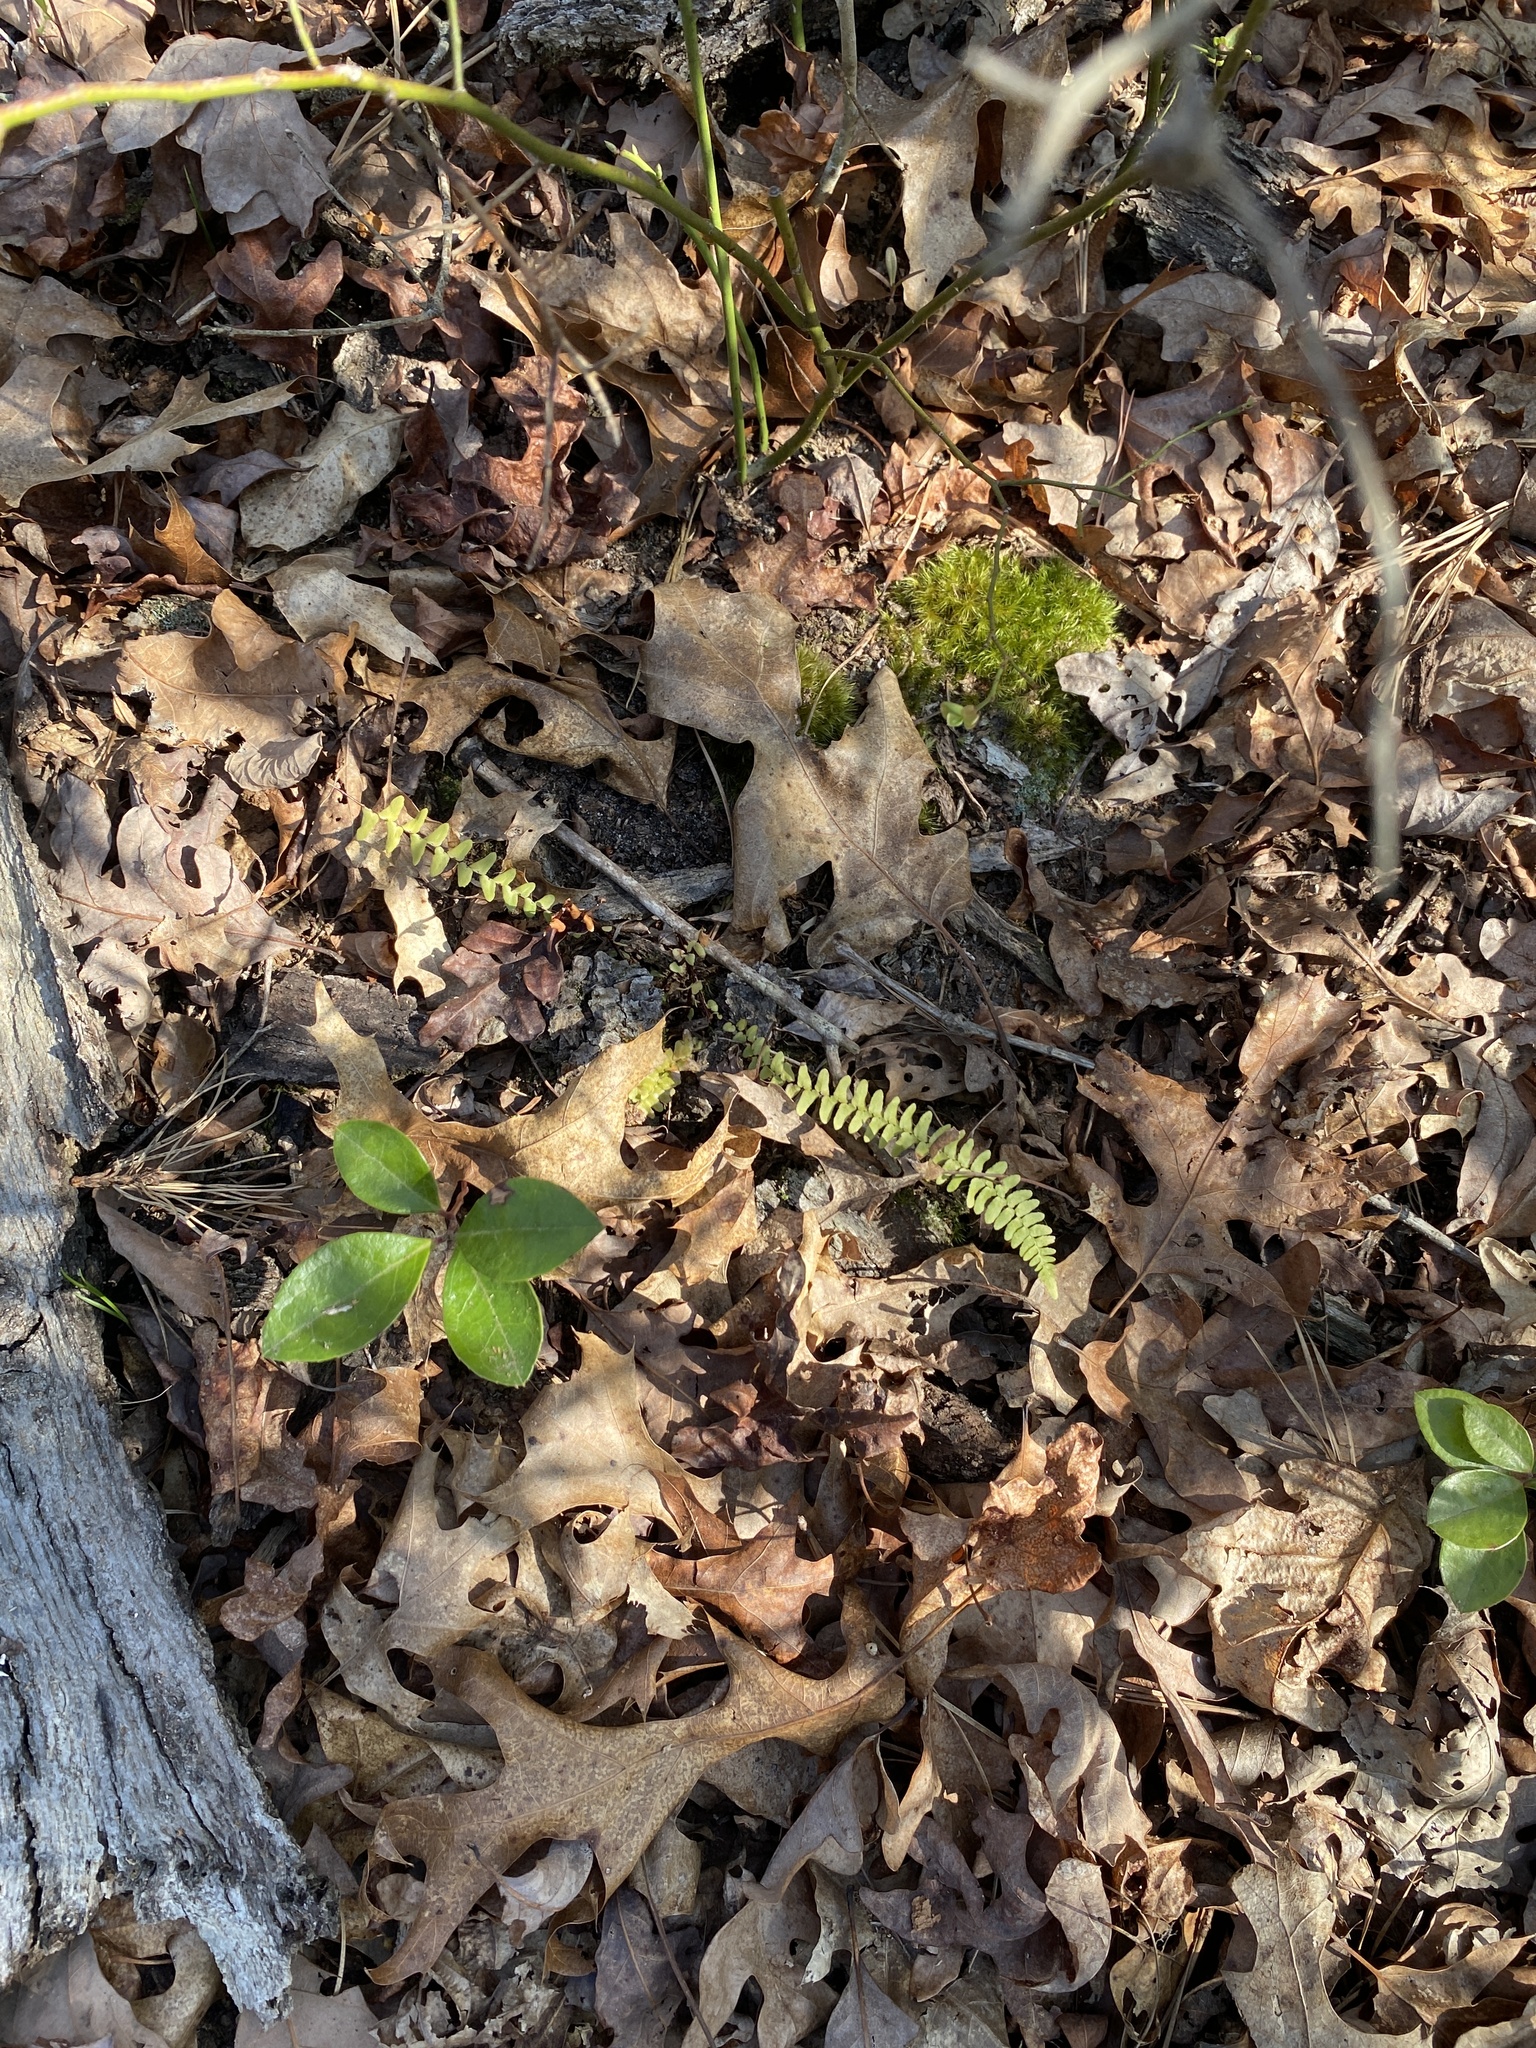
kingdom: Plantae
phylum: Tracheophyta
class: Polypodiopsida
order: Polypodiales
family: Aspleniaceae
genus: Asplenium
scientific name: Asplenium platyneuron
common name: Ebony spleenwort
